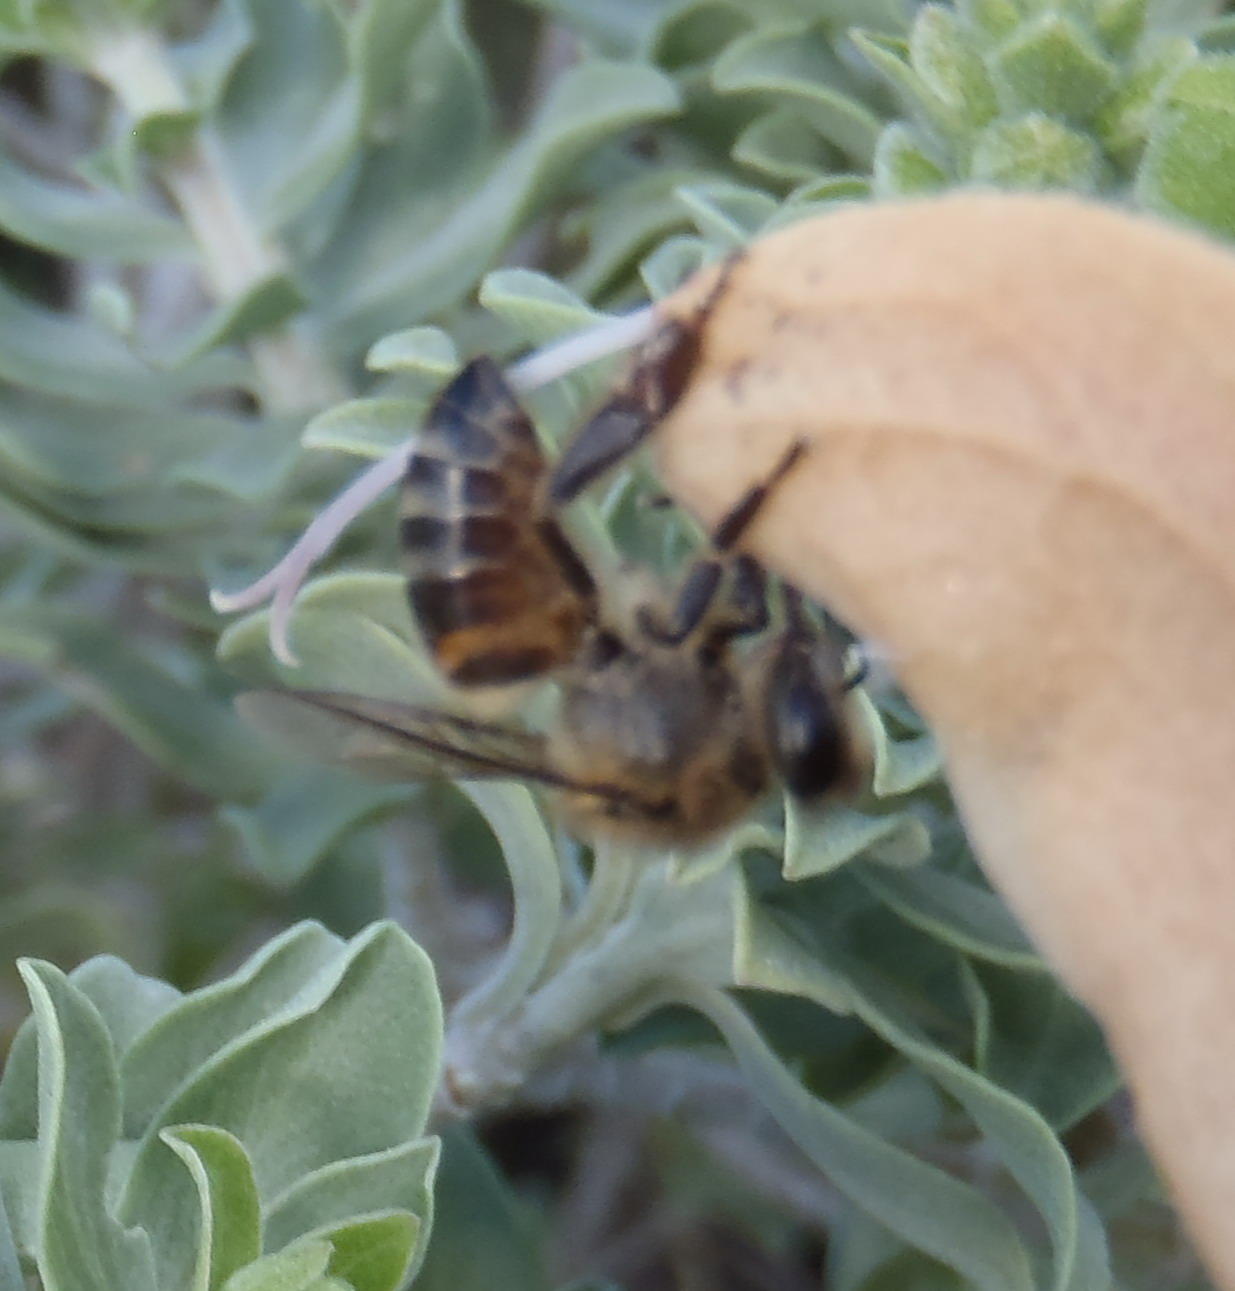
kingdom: Animalia
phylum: Arthropoda
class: Insecta
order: Hymenoptera
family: Apidae
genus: Apis
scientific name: Apis mellifera
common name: Honey bee
